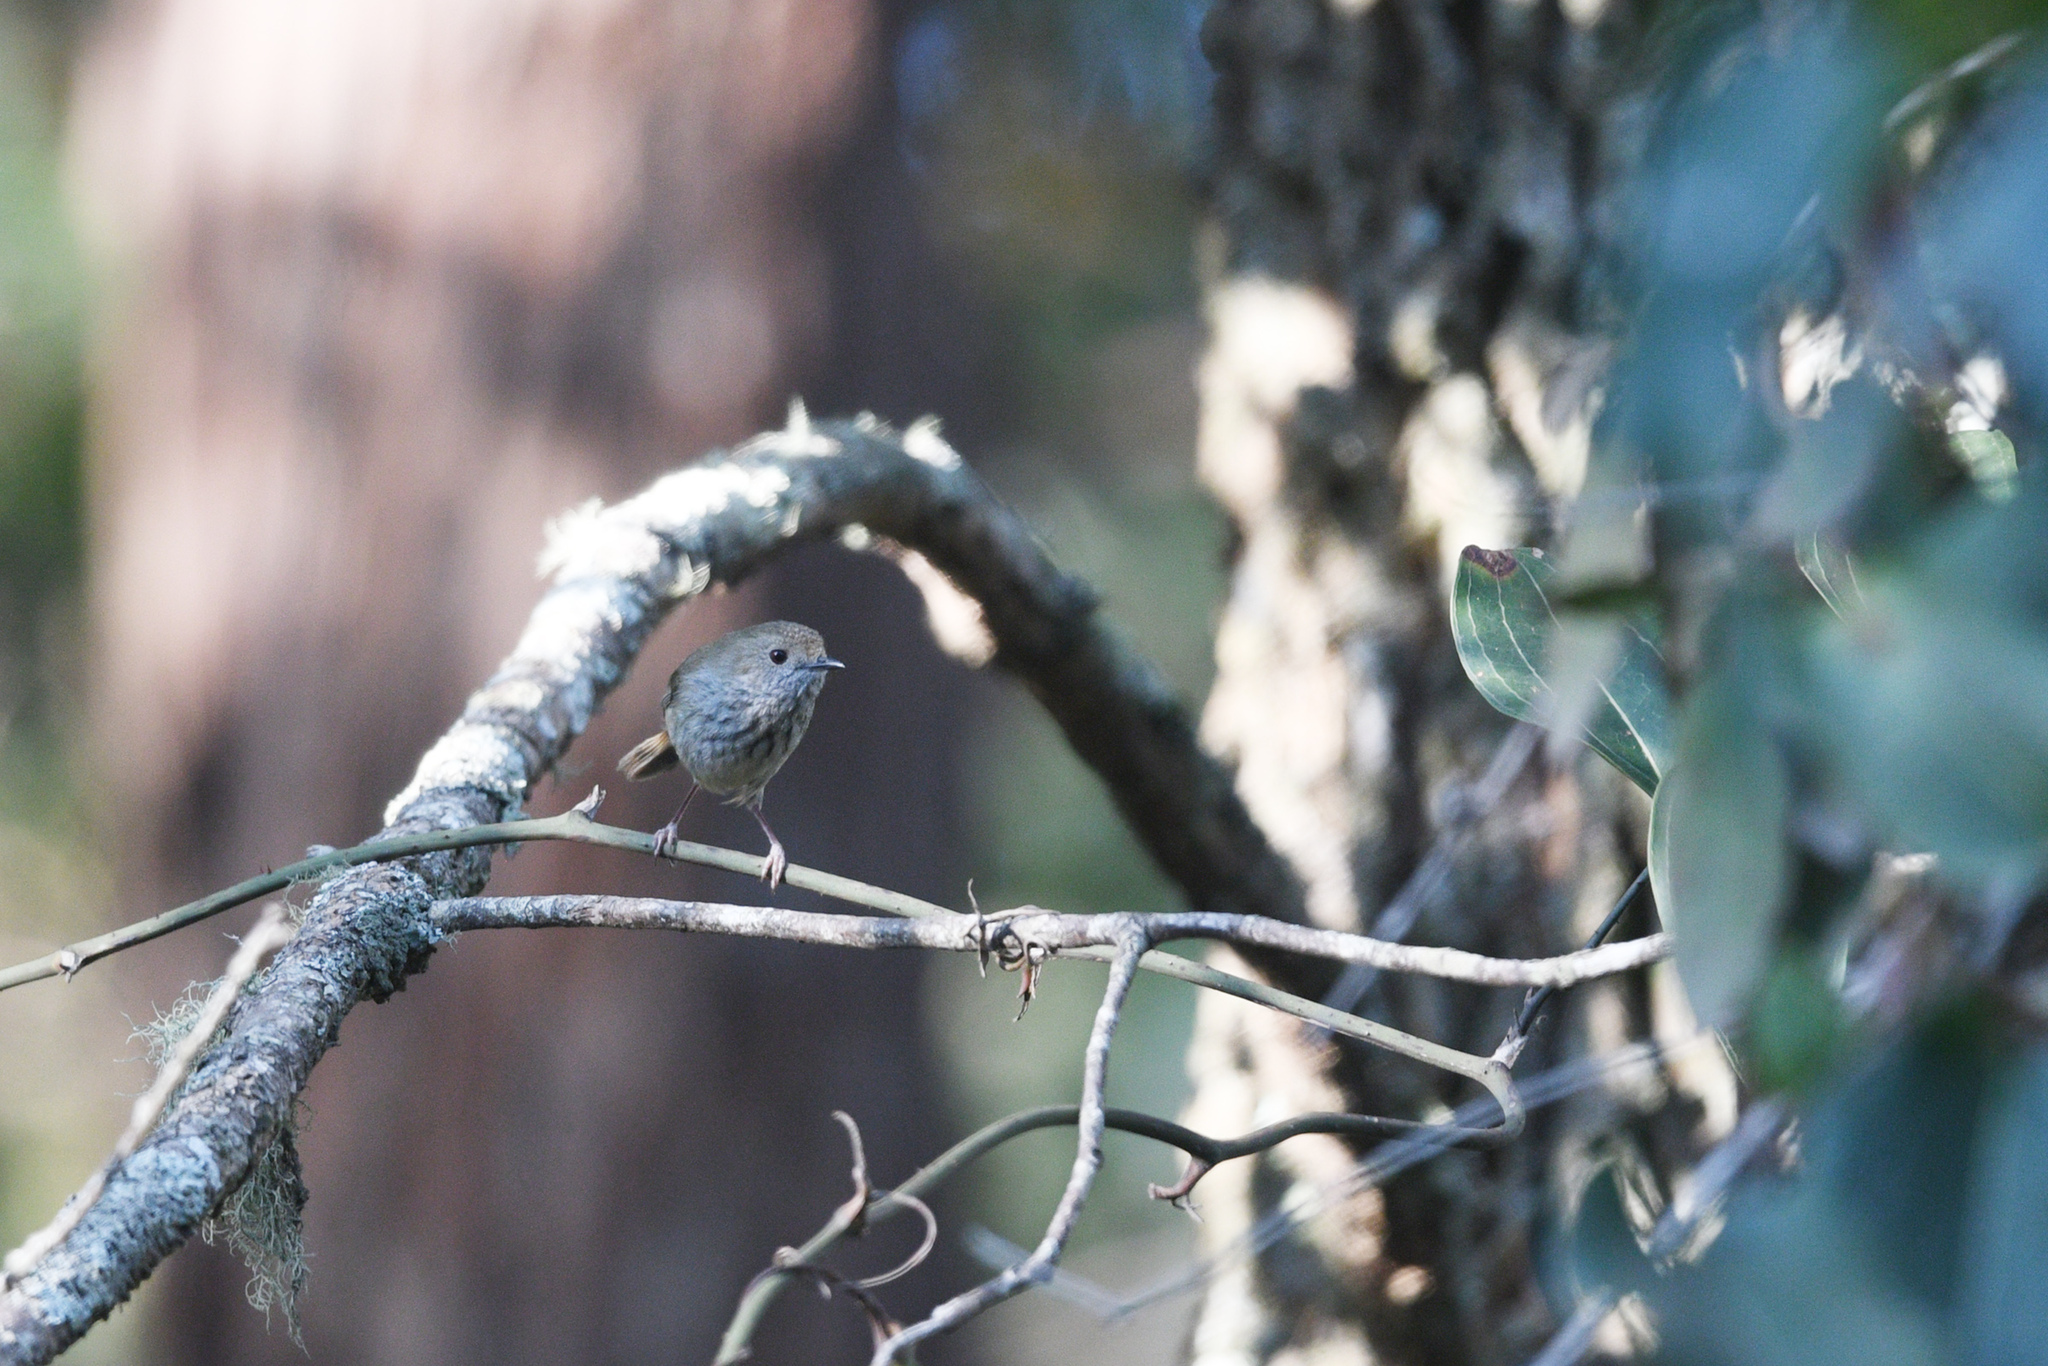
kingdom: Animalia
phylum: Chordata
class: Aves
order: Passeriformes
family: Acanthizidae
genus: Acanthiza
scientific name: Acanthiza pusilla
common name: Brown thornbill
